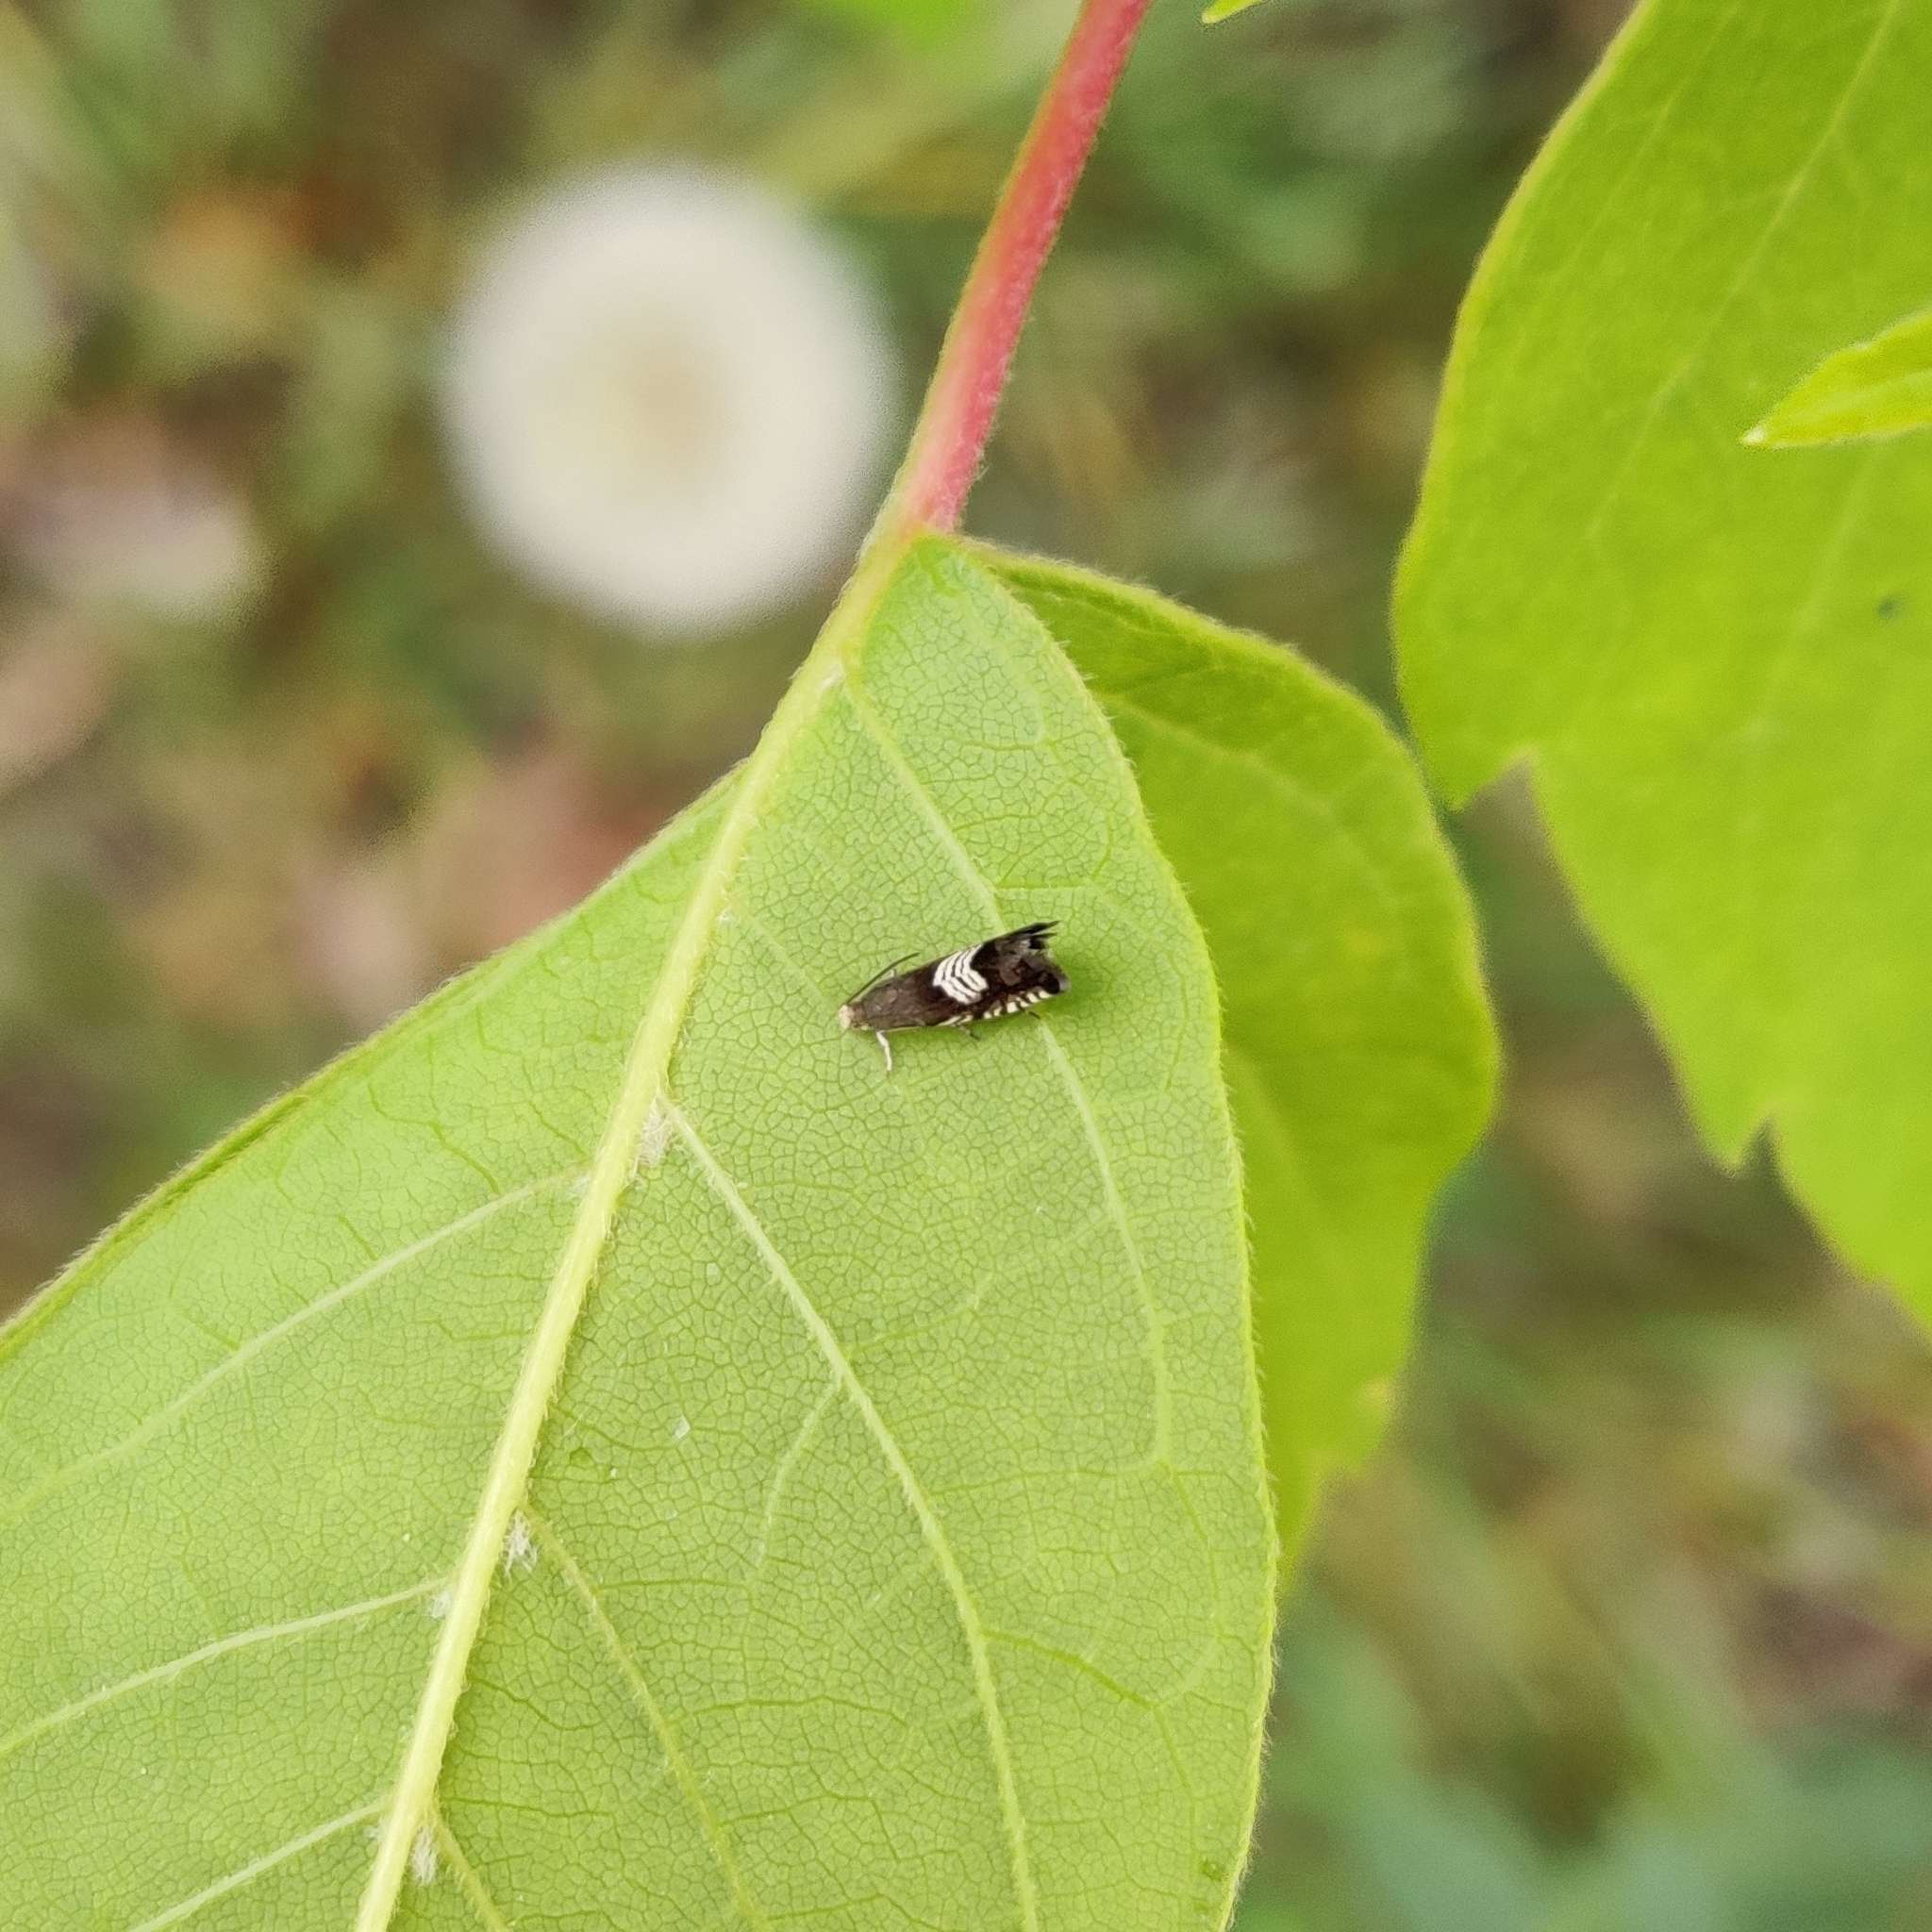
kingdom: Animalia
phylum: Arthropoda
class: Insecta
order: Lepidoptera
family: Tortricidae
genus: Grapholita
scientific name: Grapholita compositella
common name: Triple-stripe piercer
